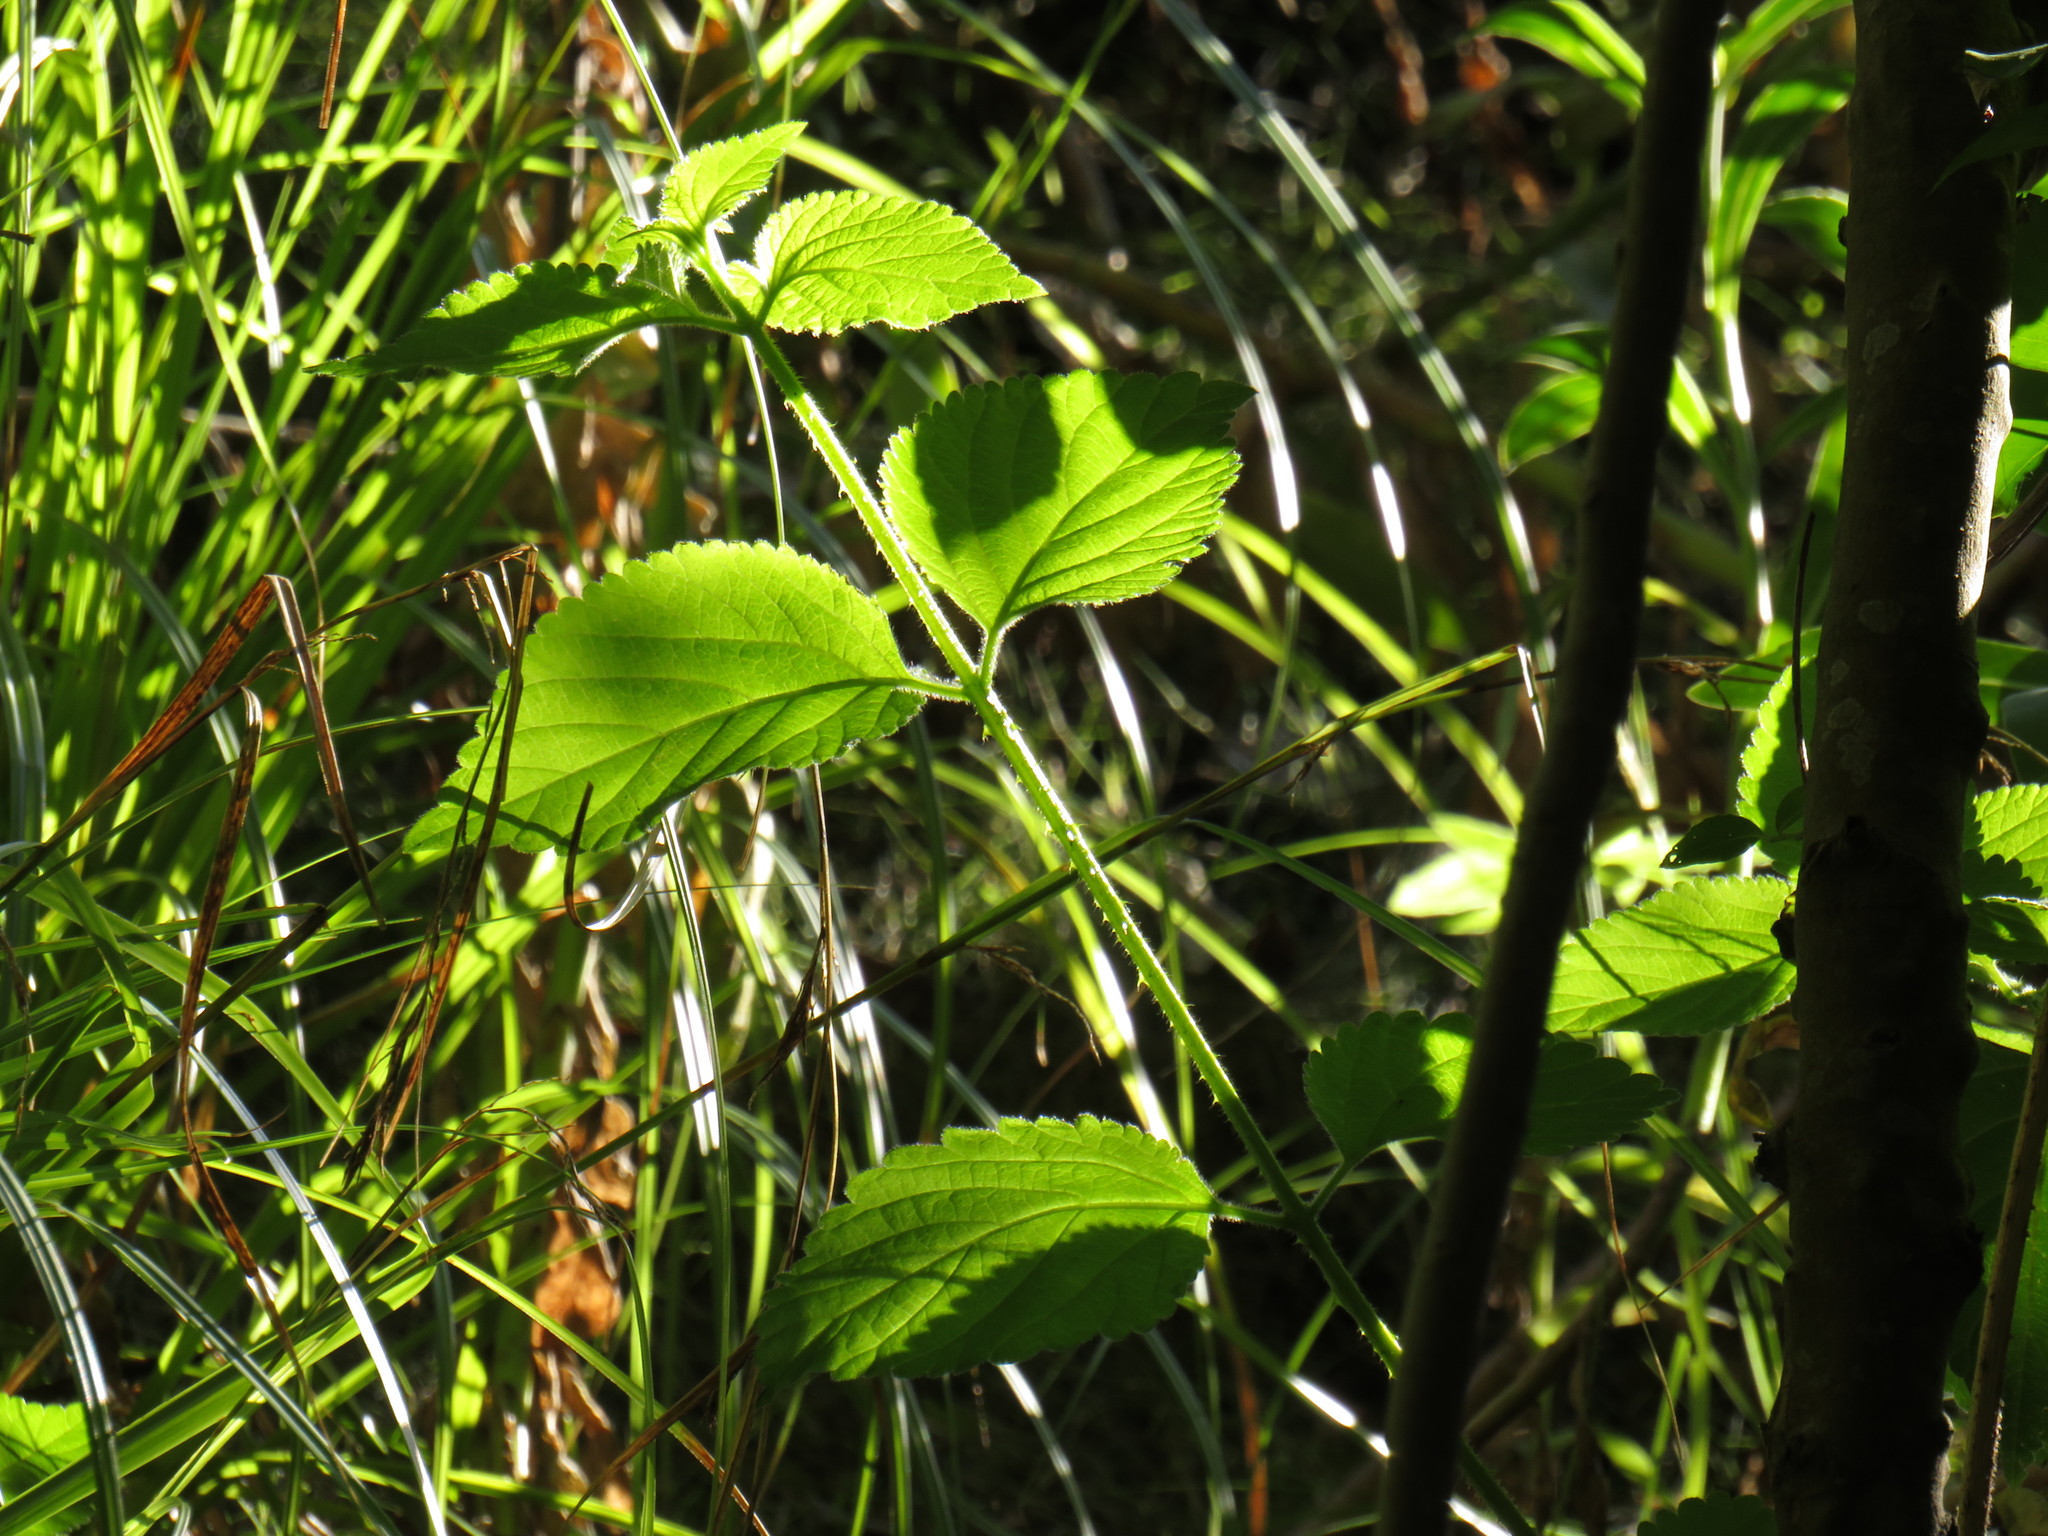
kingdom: Plantae
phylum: Tracheophyta
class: Magnoliopsida
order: Lamiales
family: Verbenaceae
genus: Lantana
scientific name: Lantana camara
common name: Lantana
